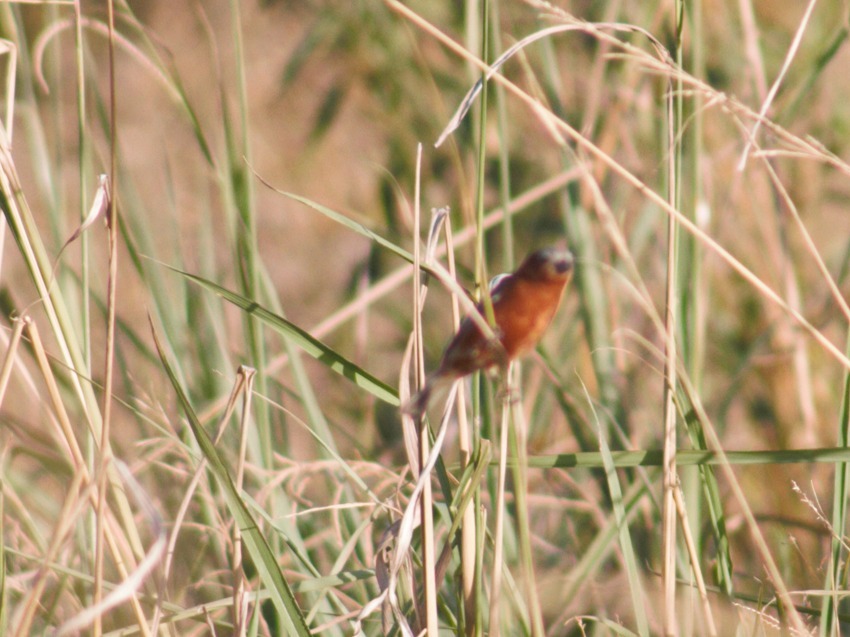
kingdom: Animalia
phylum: Chordata
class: Aves
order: Passeriformes
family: Thraupidae
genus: Sporophila
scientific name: Sporophila cinnamomea
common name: Chestnut seedeater
